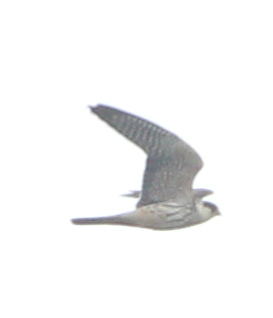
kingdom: Animalia
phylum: Chordata
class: Aves
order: Falconiformes
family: Falconidae
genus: Falco
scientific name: Falco vespertinus
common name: Red-footed falcon
